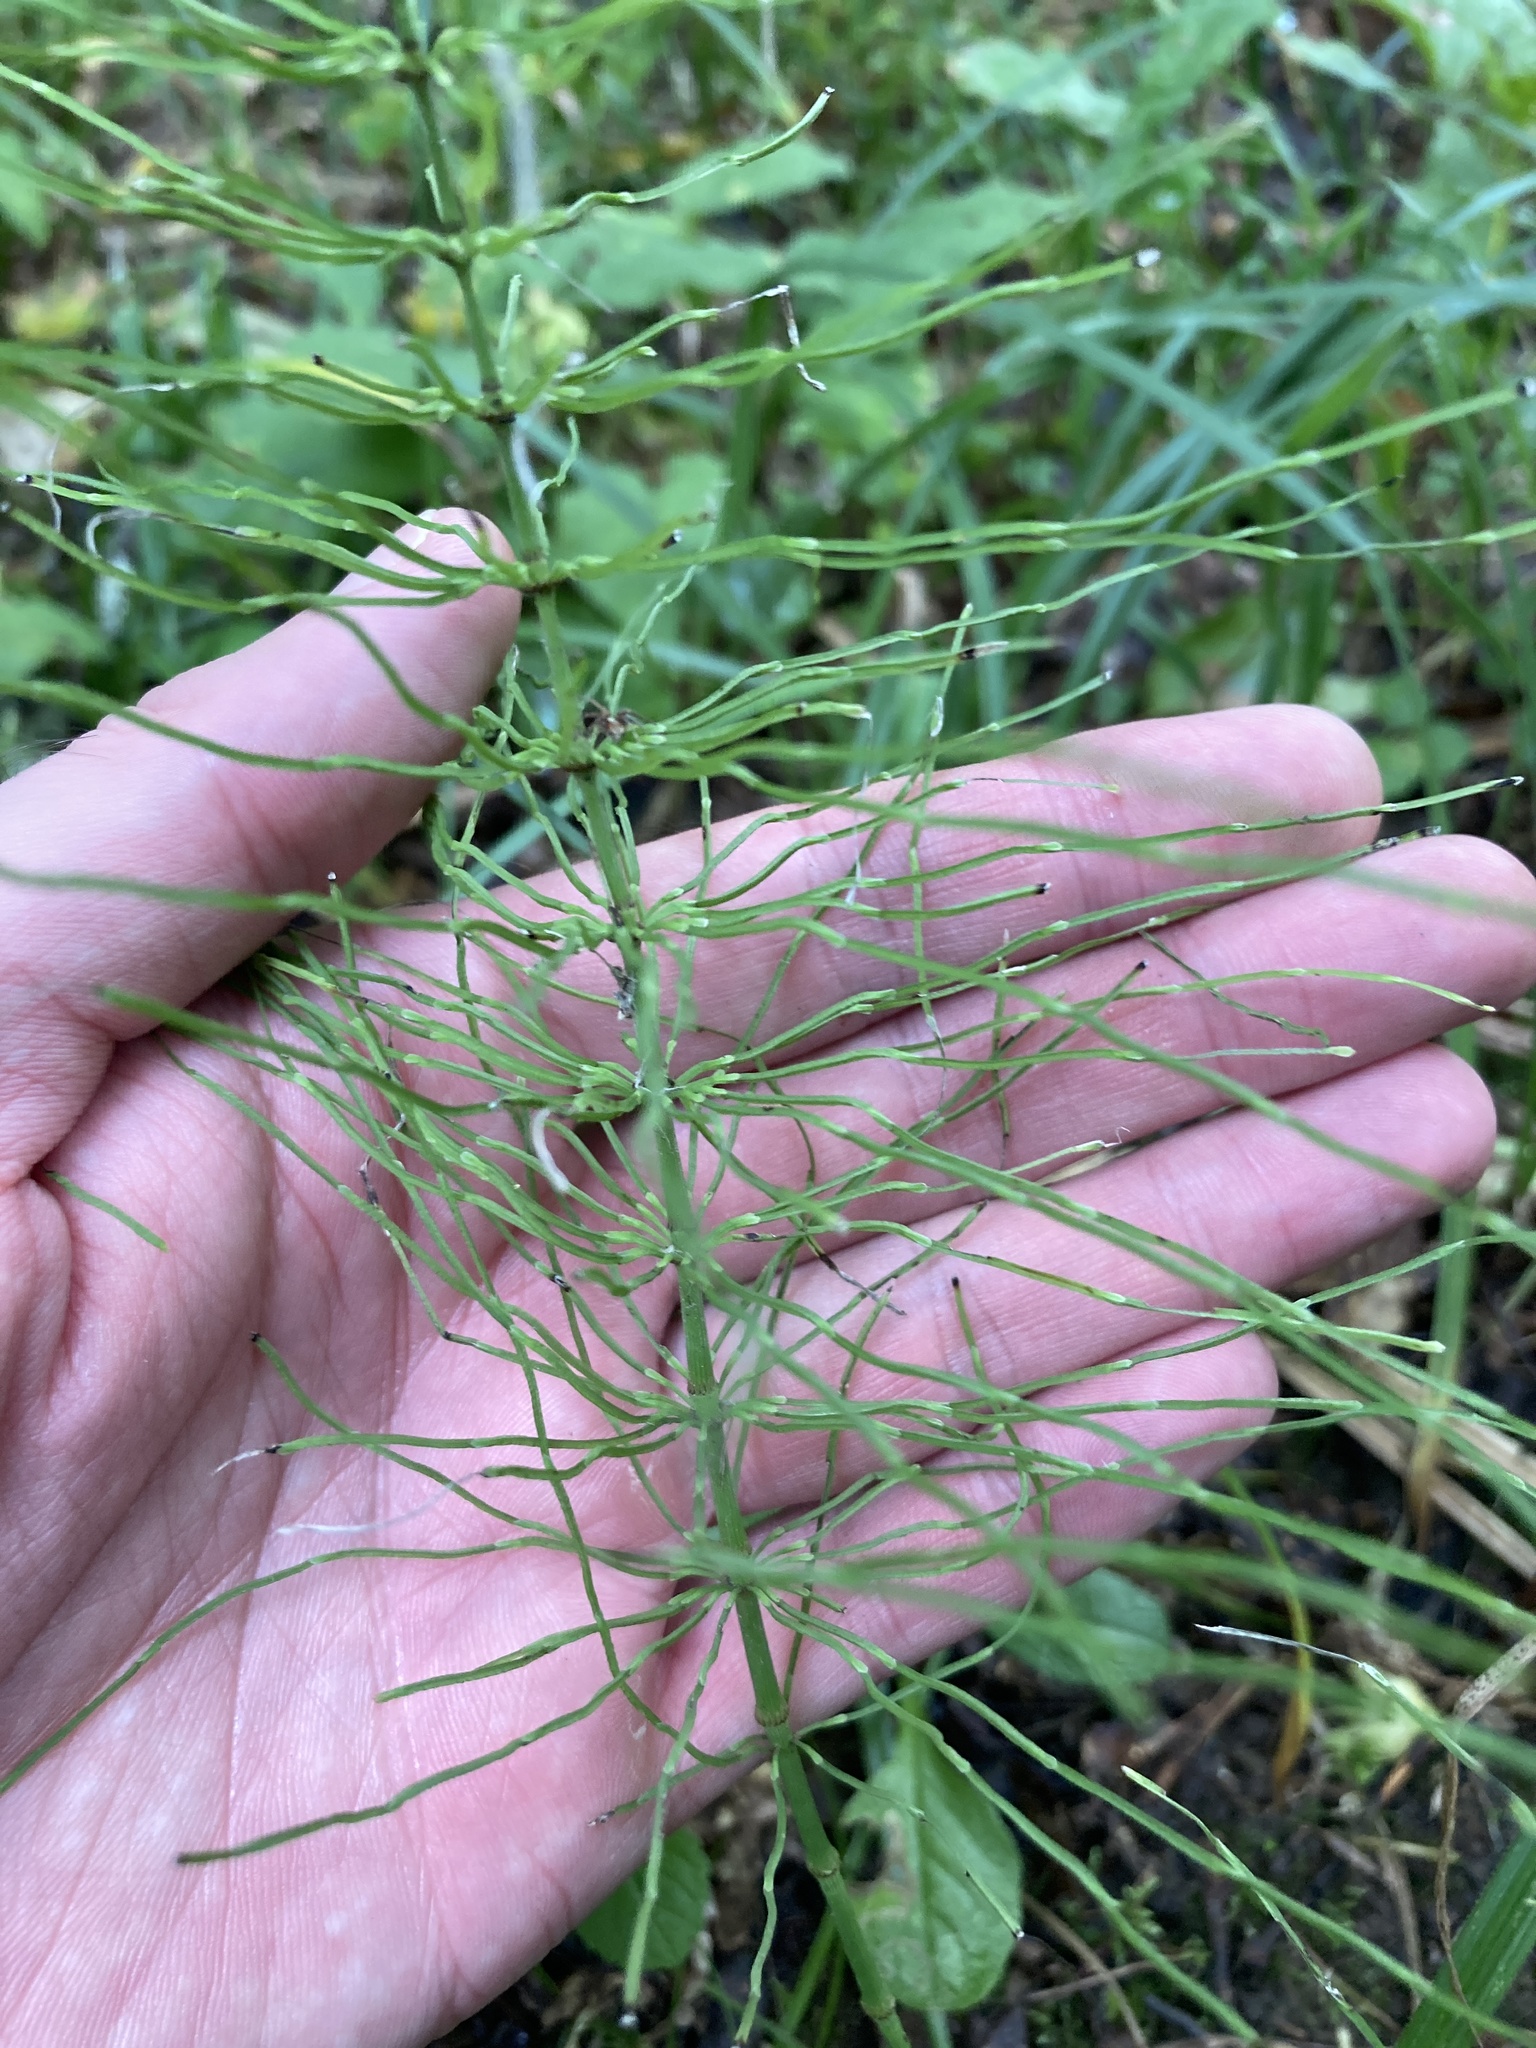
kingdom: Plantae
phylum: Tracheophyta
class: Polypodiopsida
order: Equisetales
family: Equisetaceae
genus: Equisetum
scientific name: Equisetum pratense
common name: Meadow horsetail
